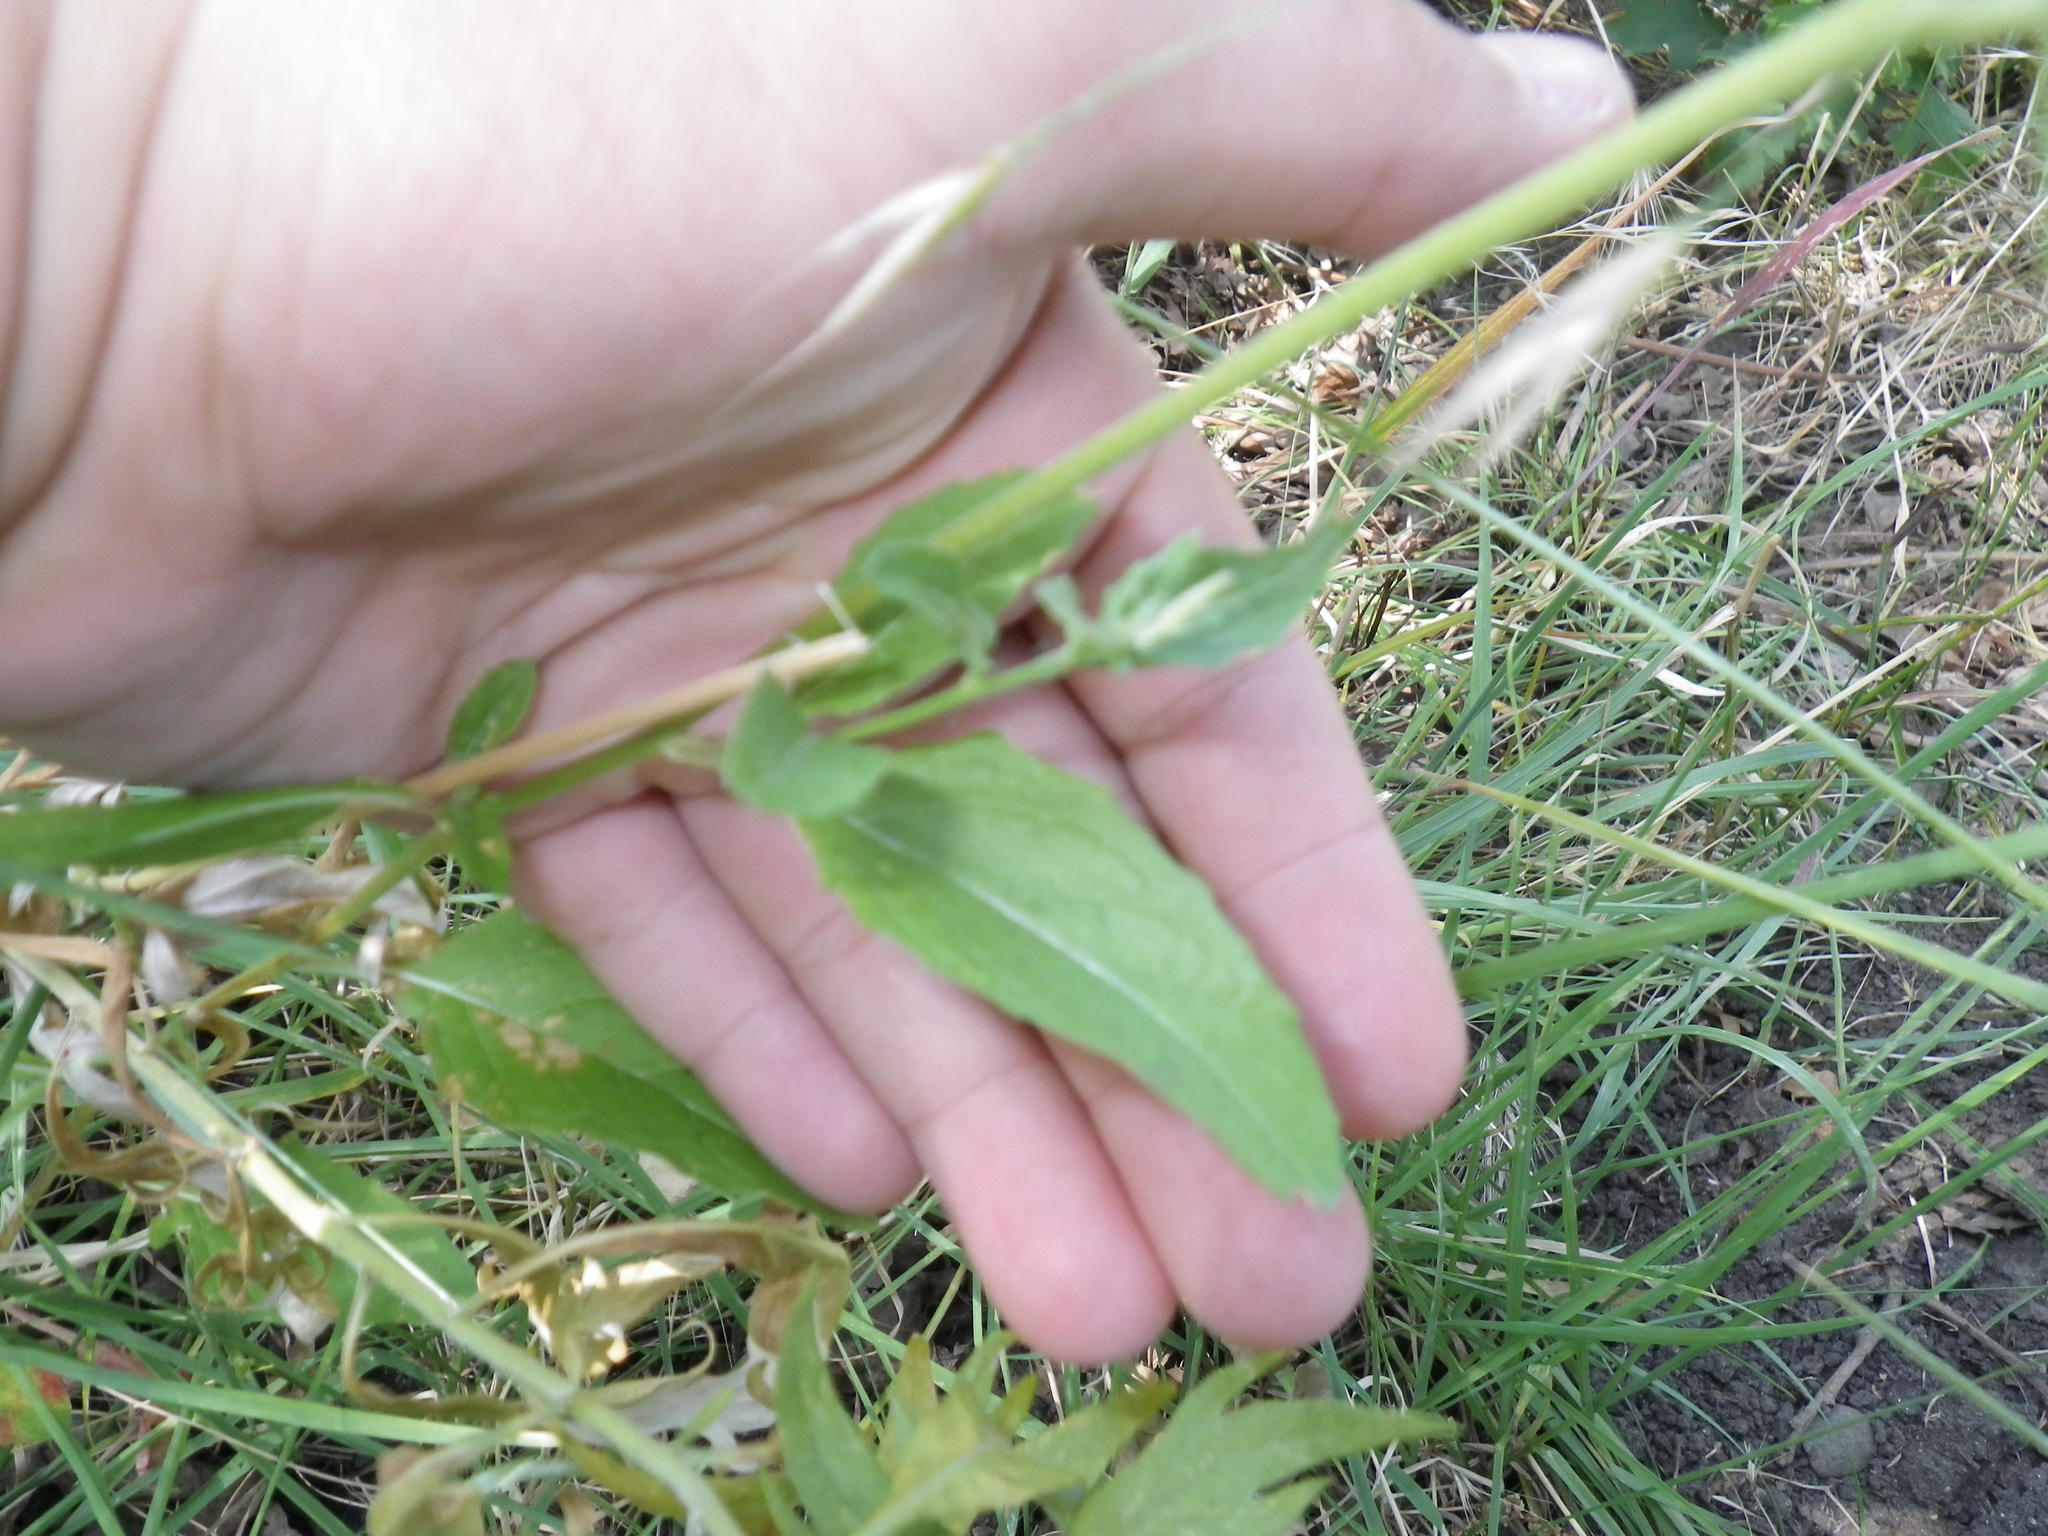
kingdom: Plantae
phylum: Tracheophyta
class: Magnoliopsida
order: Myrtales
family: Onagraceae
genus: Oenothera
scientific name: Oenothera speciosa
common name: White evening-primrose
